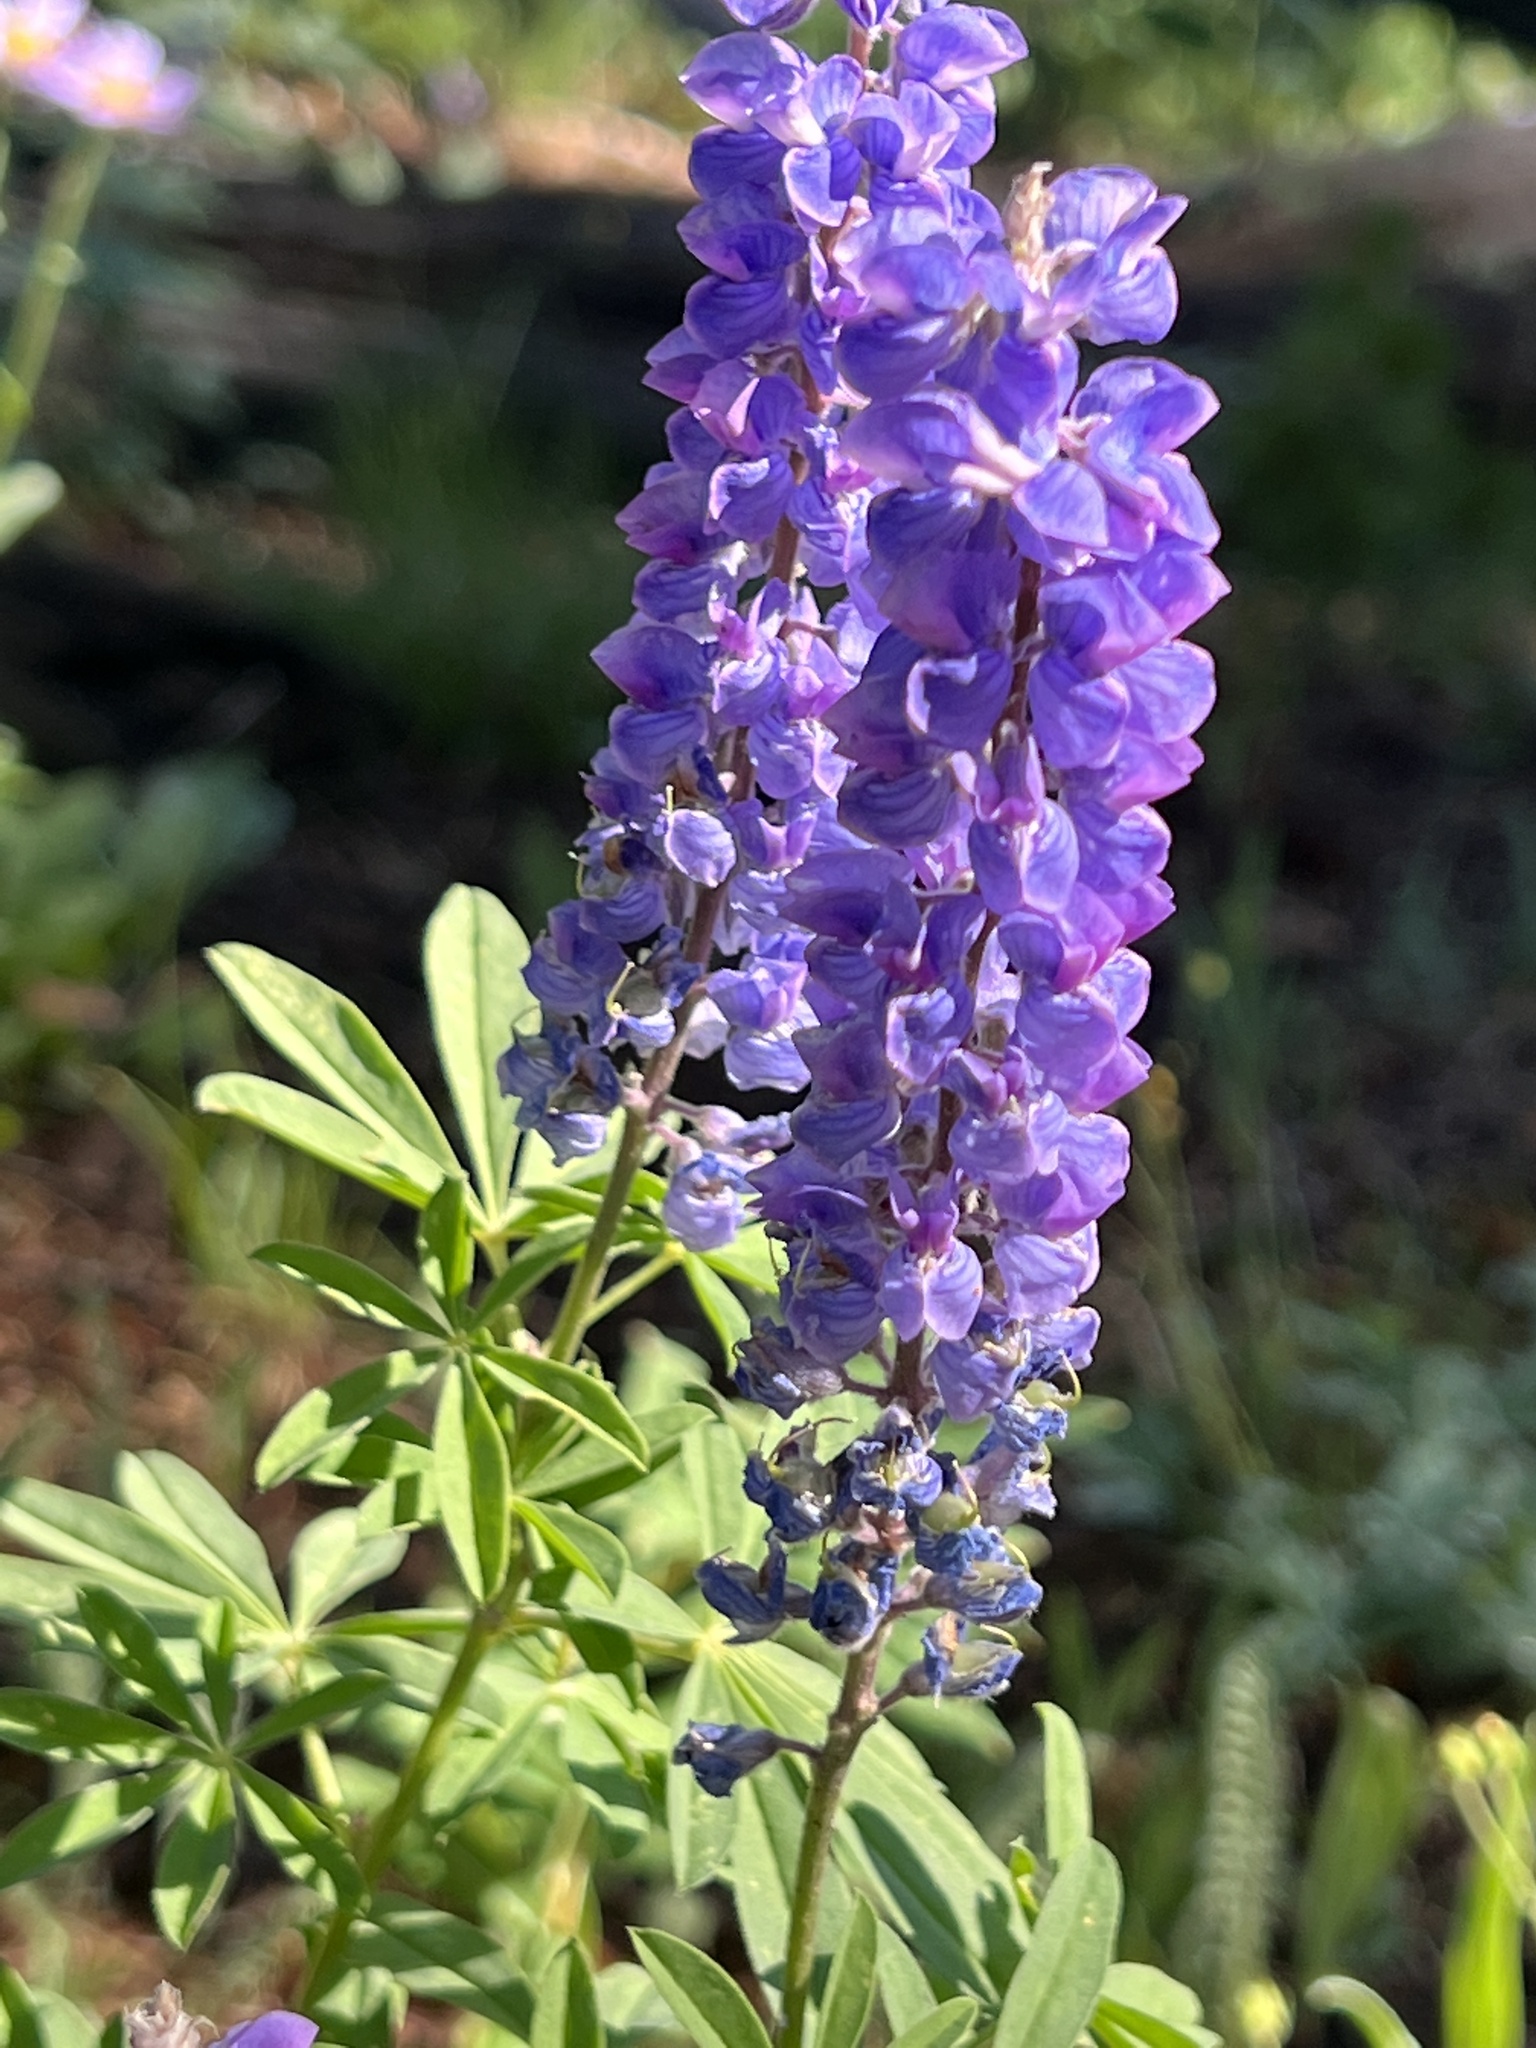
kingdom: Plantae
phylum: Tracheophyta
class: Magnoliopsida
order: Fabales
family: Fabaceae
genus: Lupinus
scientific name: Lupinus polyphyllus
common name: Garden lupin
